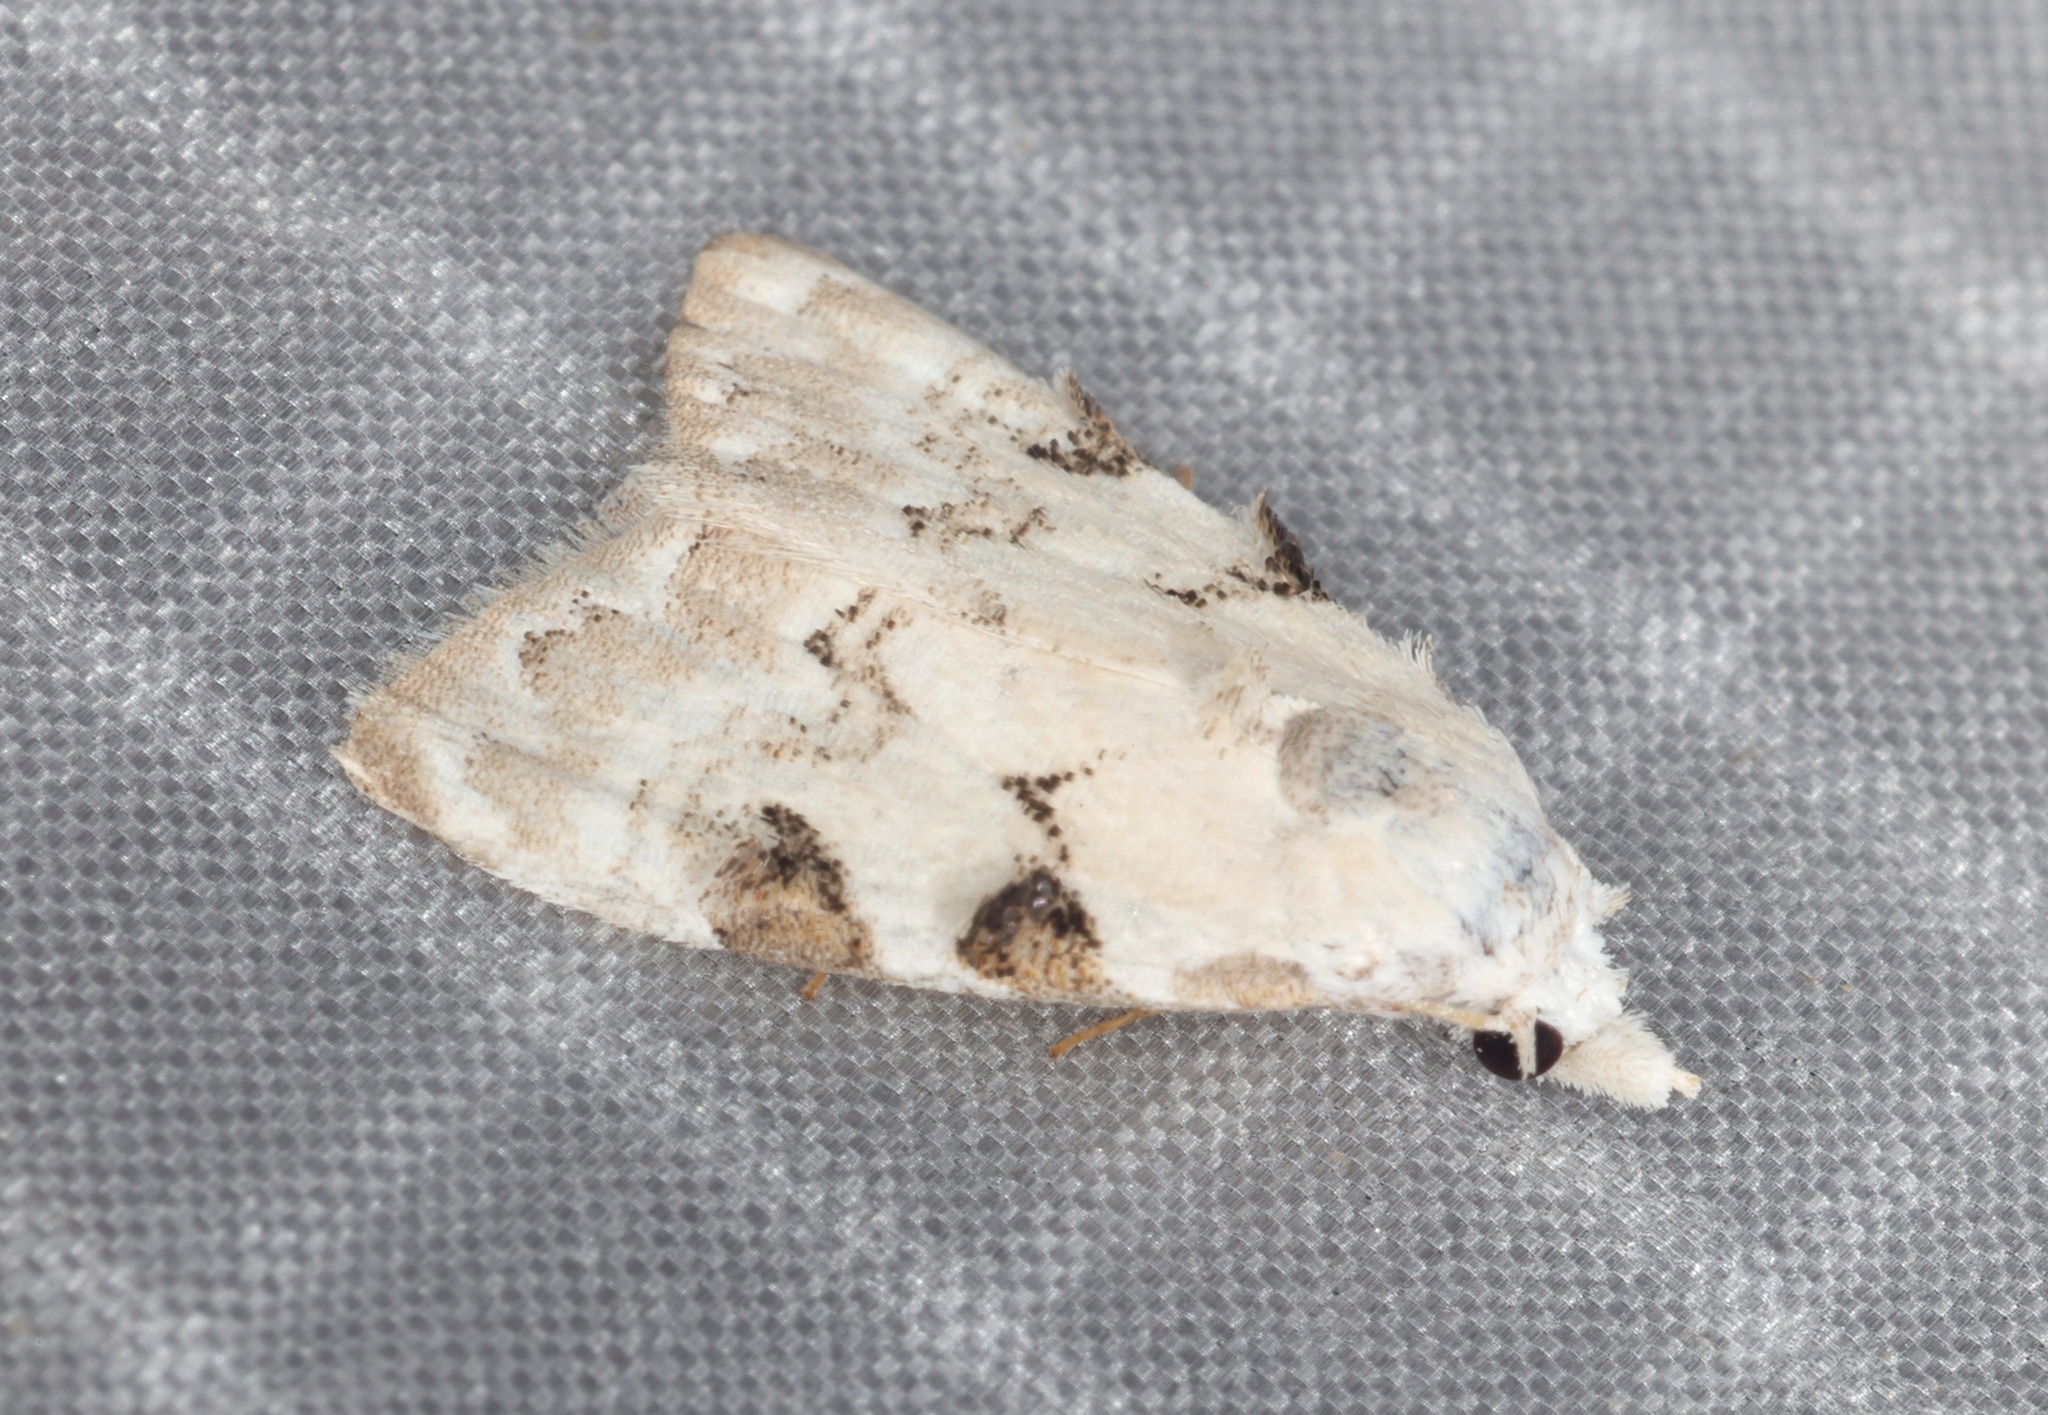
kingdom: Animalia
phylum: Arthropoda
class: Insecta
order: Lepidoptera
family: Nolidae
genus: Nola
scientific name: Nola pascua
